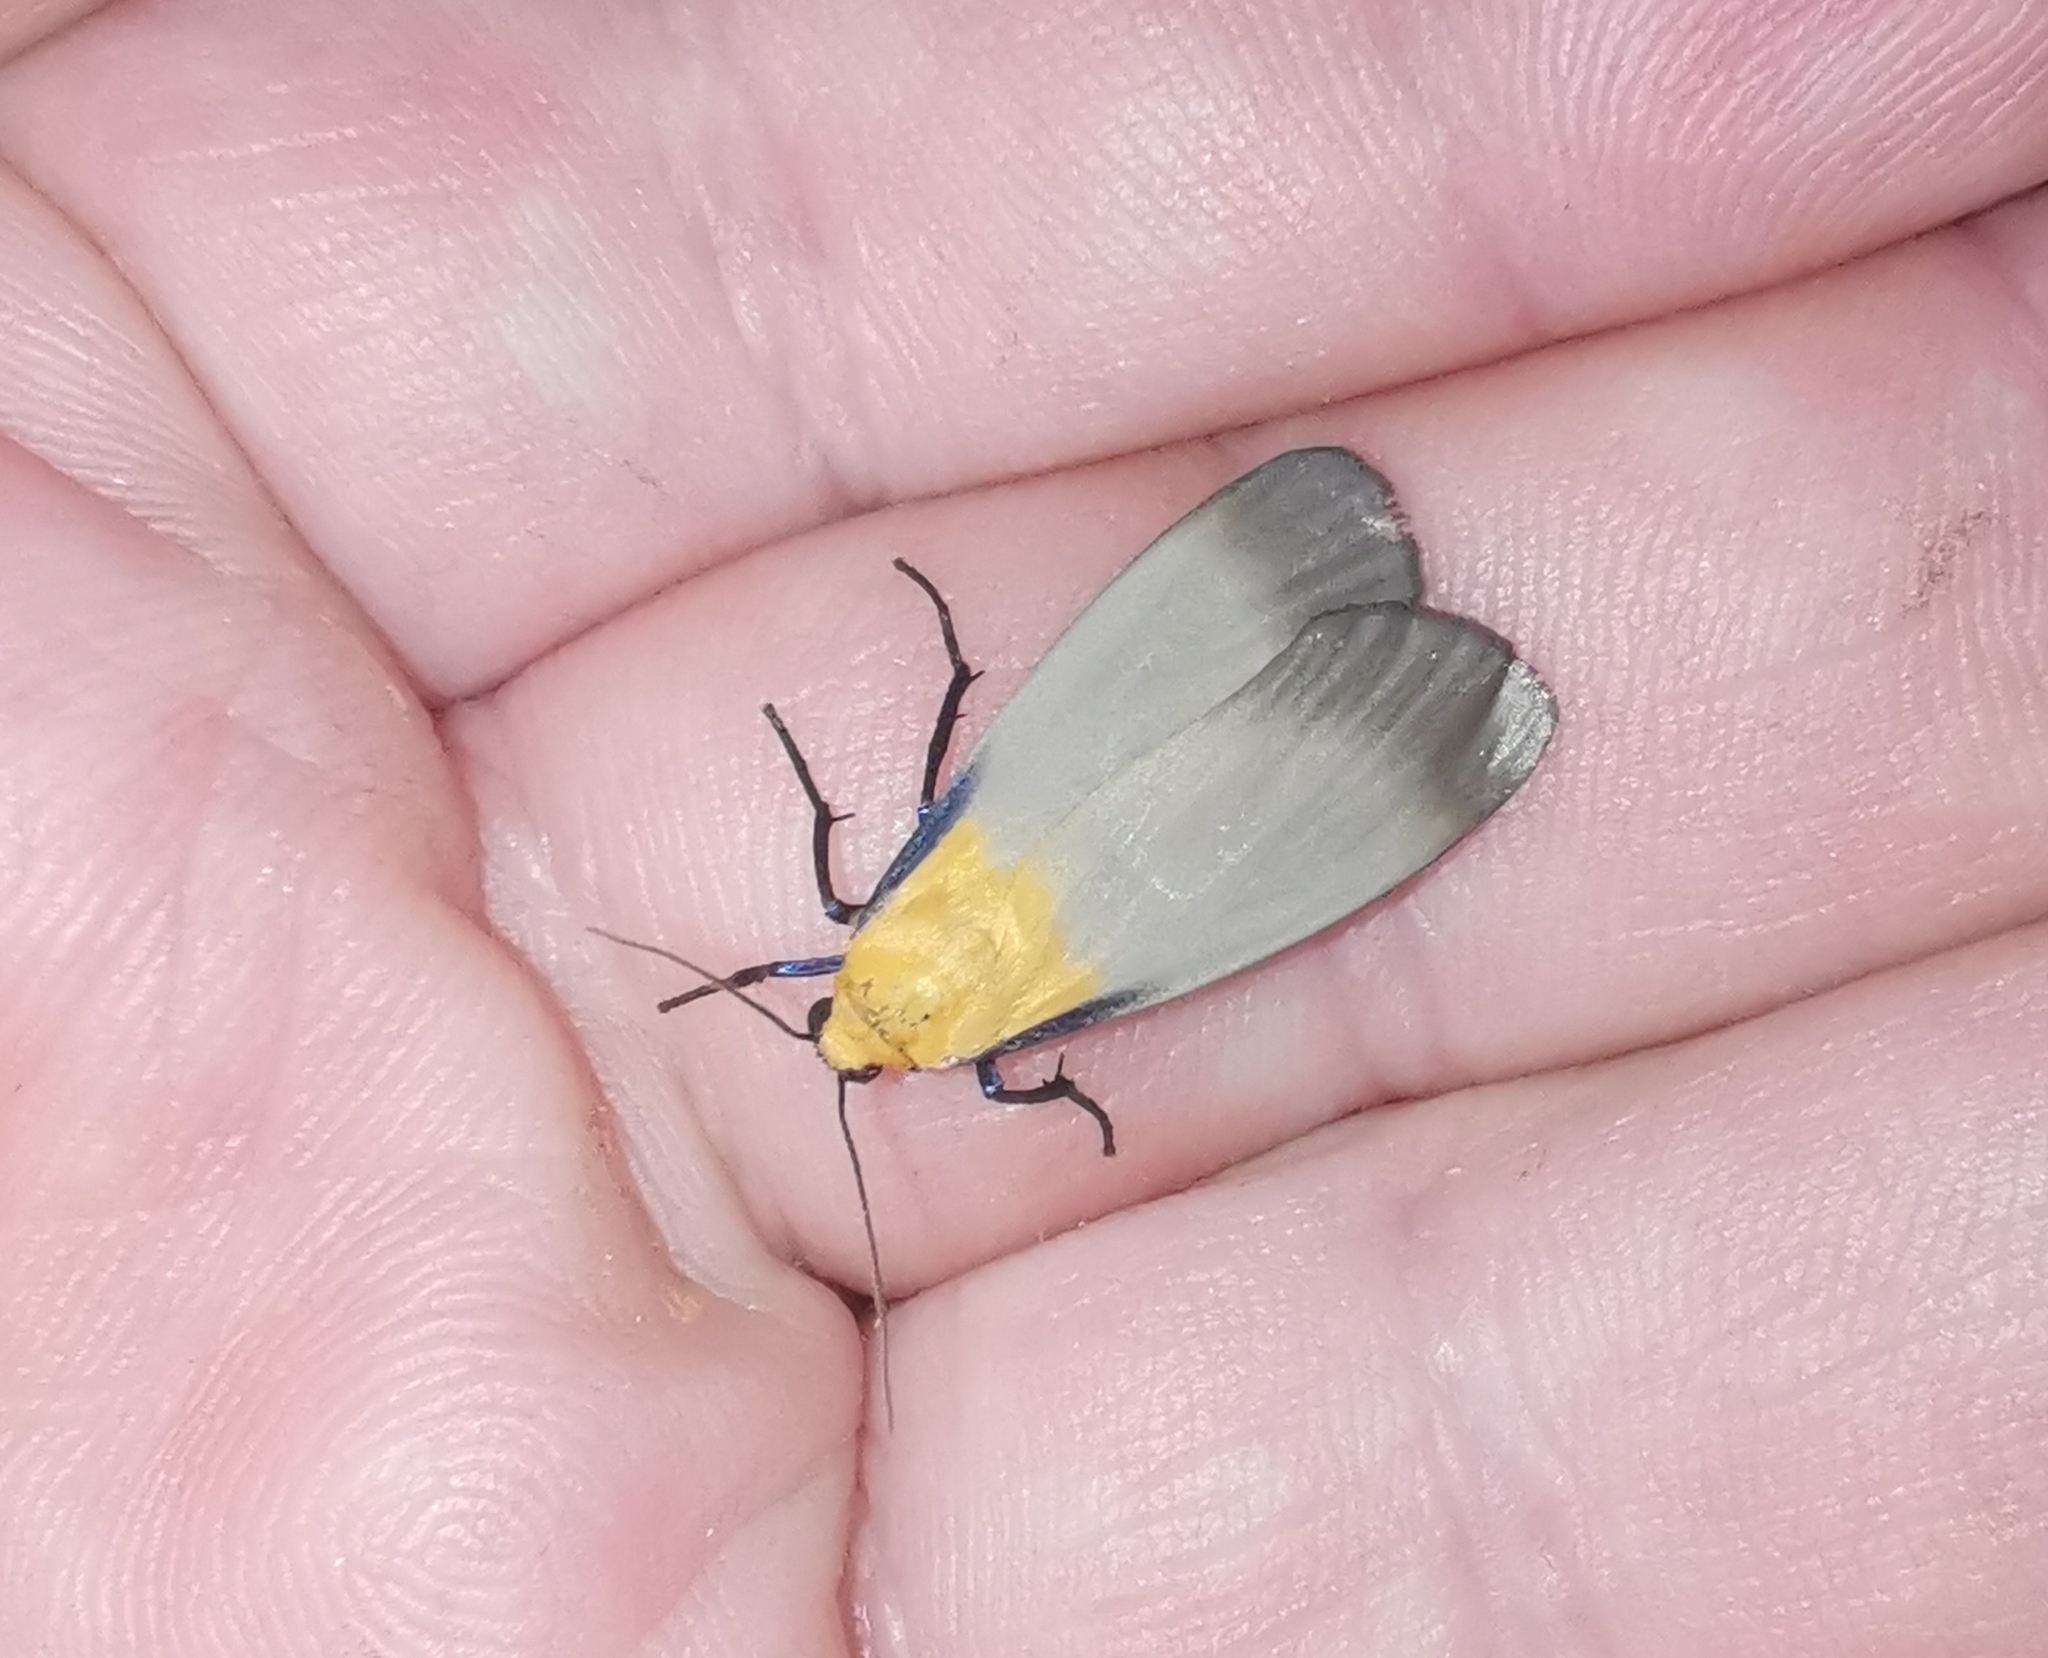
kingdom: Animalia
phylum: Arthropoda
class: Insecta
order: Lepidoptera
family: Erebidae
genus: Lithosia
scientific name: Lithosia quadra
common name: Four-spotted footman
